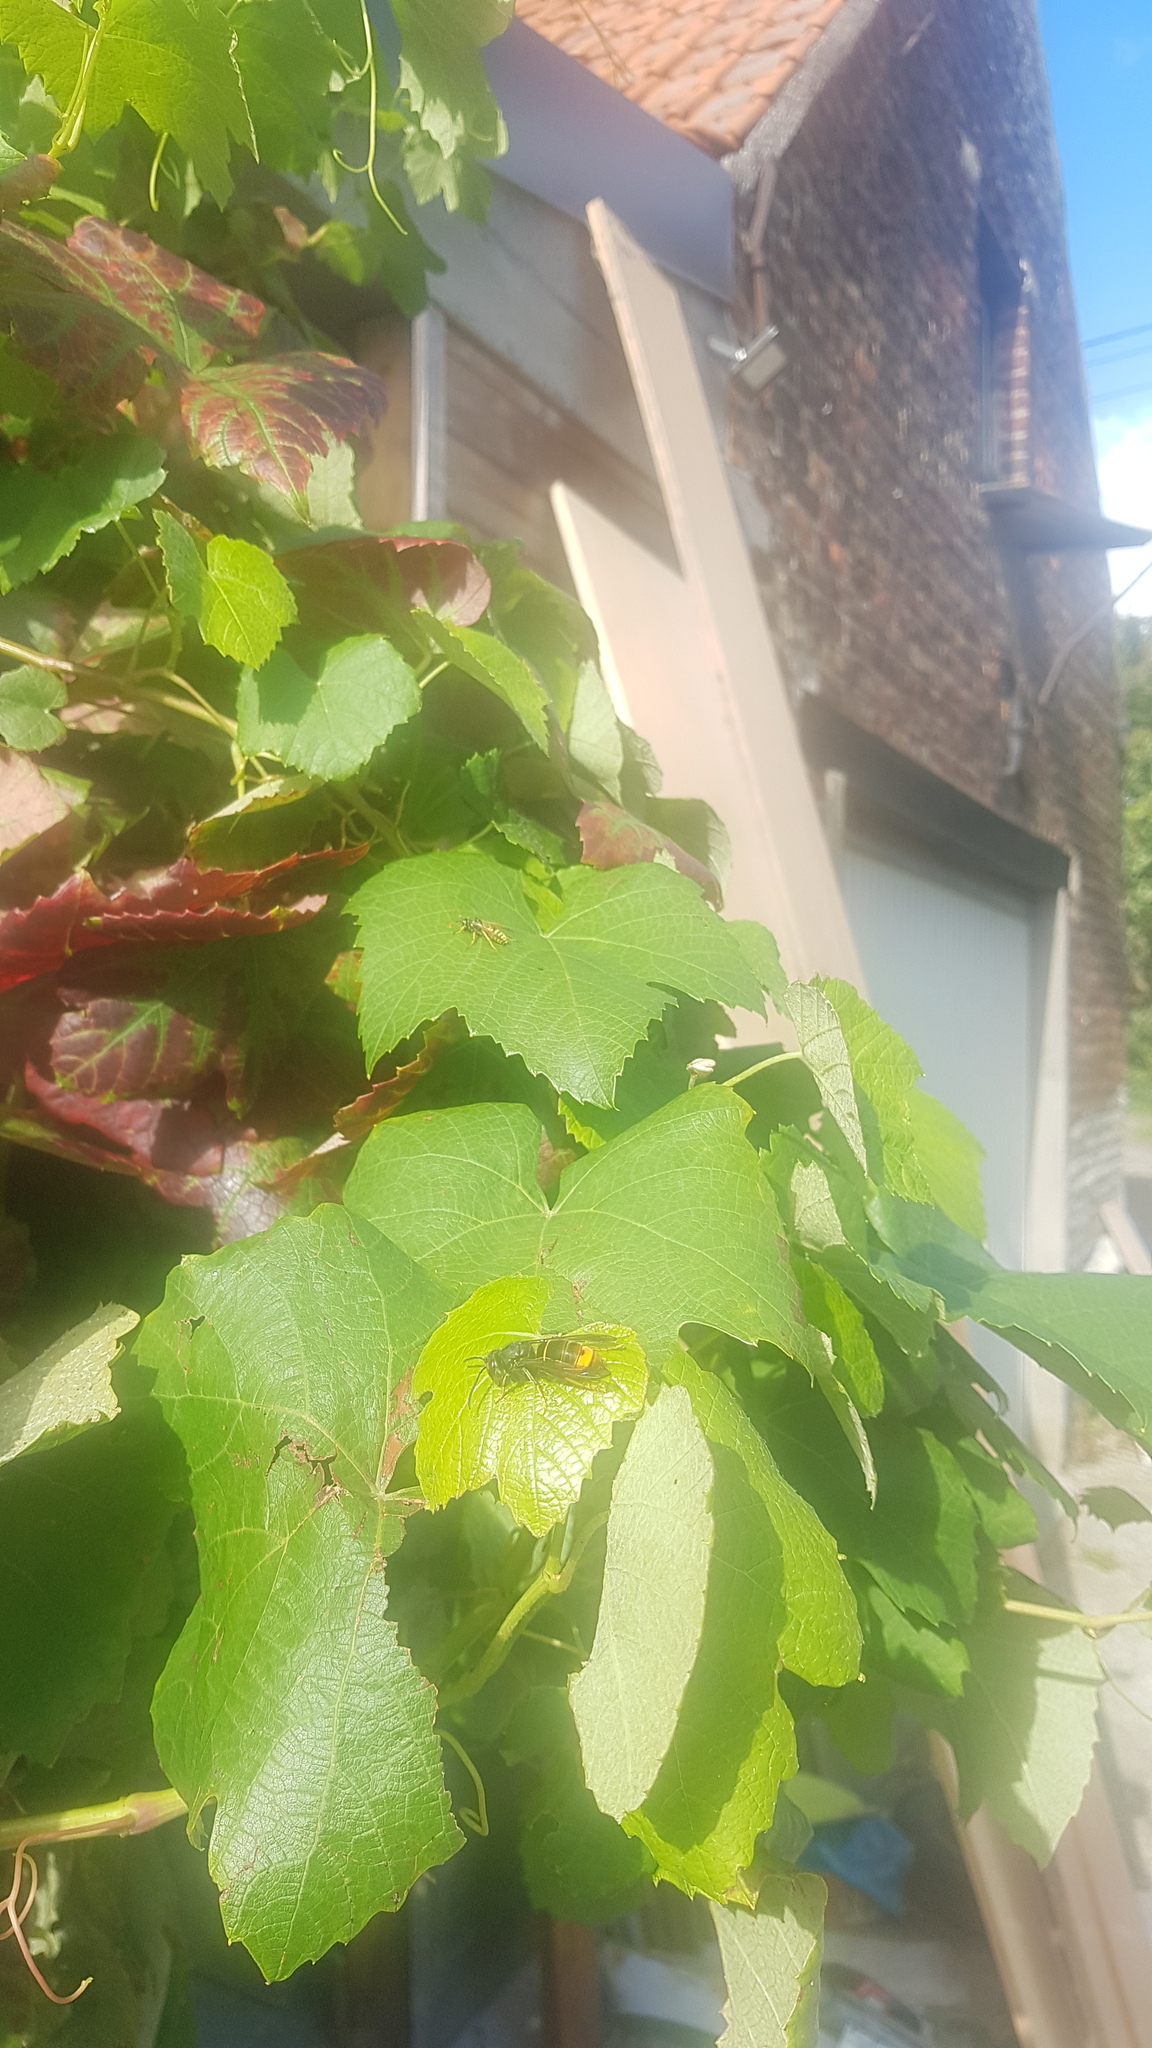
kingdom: Animalia
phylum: Arthropoda
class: Insecta
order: Hymenoptera
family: Vespidae
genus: Vespa
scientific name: Vespa velutina
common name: Asian hornet
